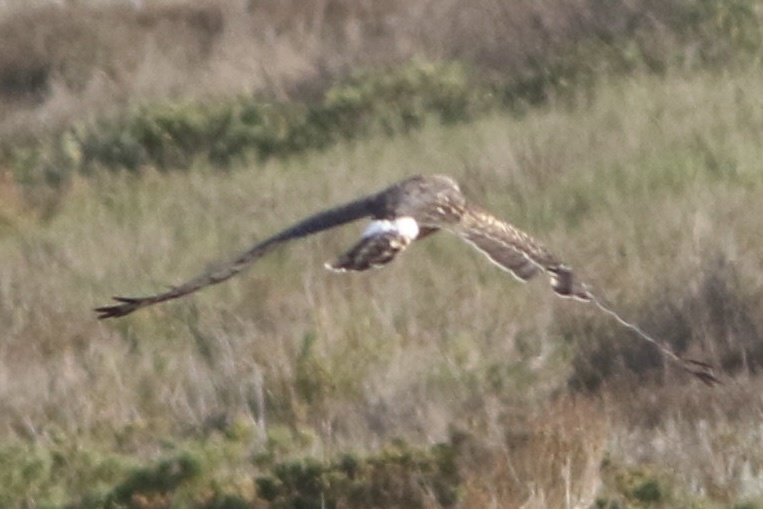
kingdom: Animalia
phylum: Chordata
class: Aves
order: Accipitriformes
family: Accipitridae
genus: Circus
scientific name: Circus cyaneus
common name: Hen harrier
